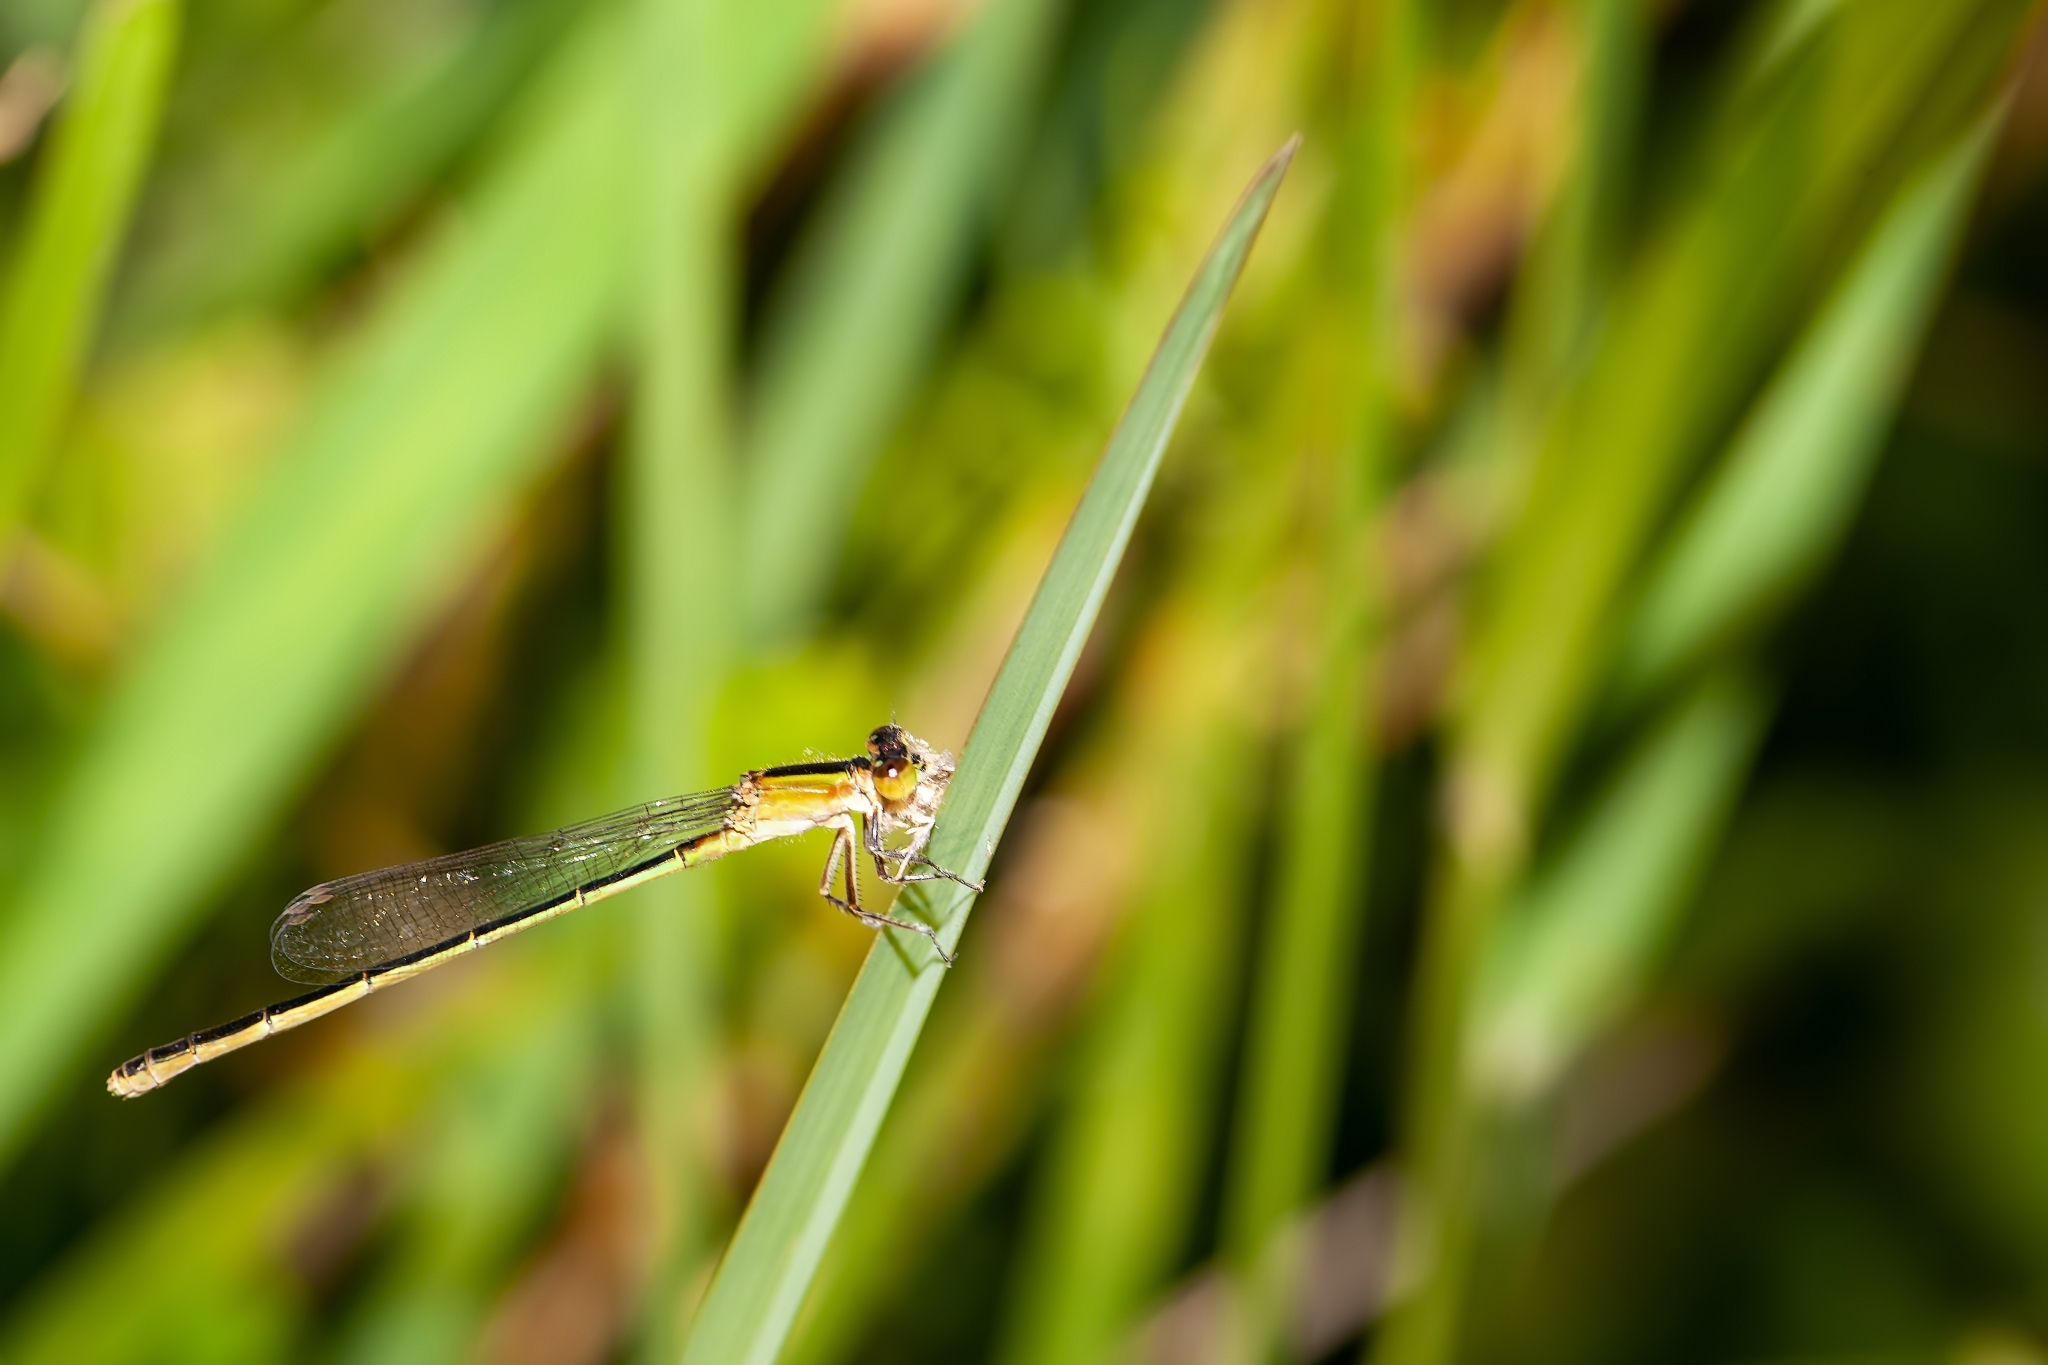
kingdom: Animalia
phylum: Arthropoda
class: Insecta
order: Odonata
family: Coenagrionidae
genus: Ischnura
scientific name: Ischnura ramburii
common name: Rambur's forktail
